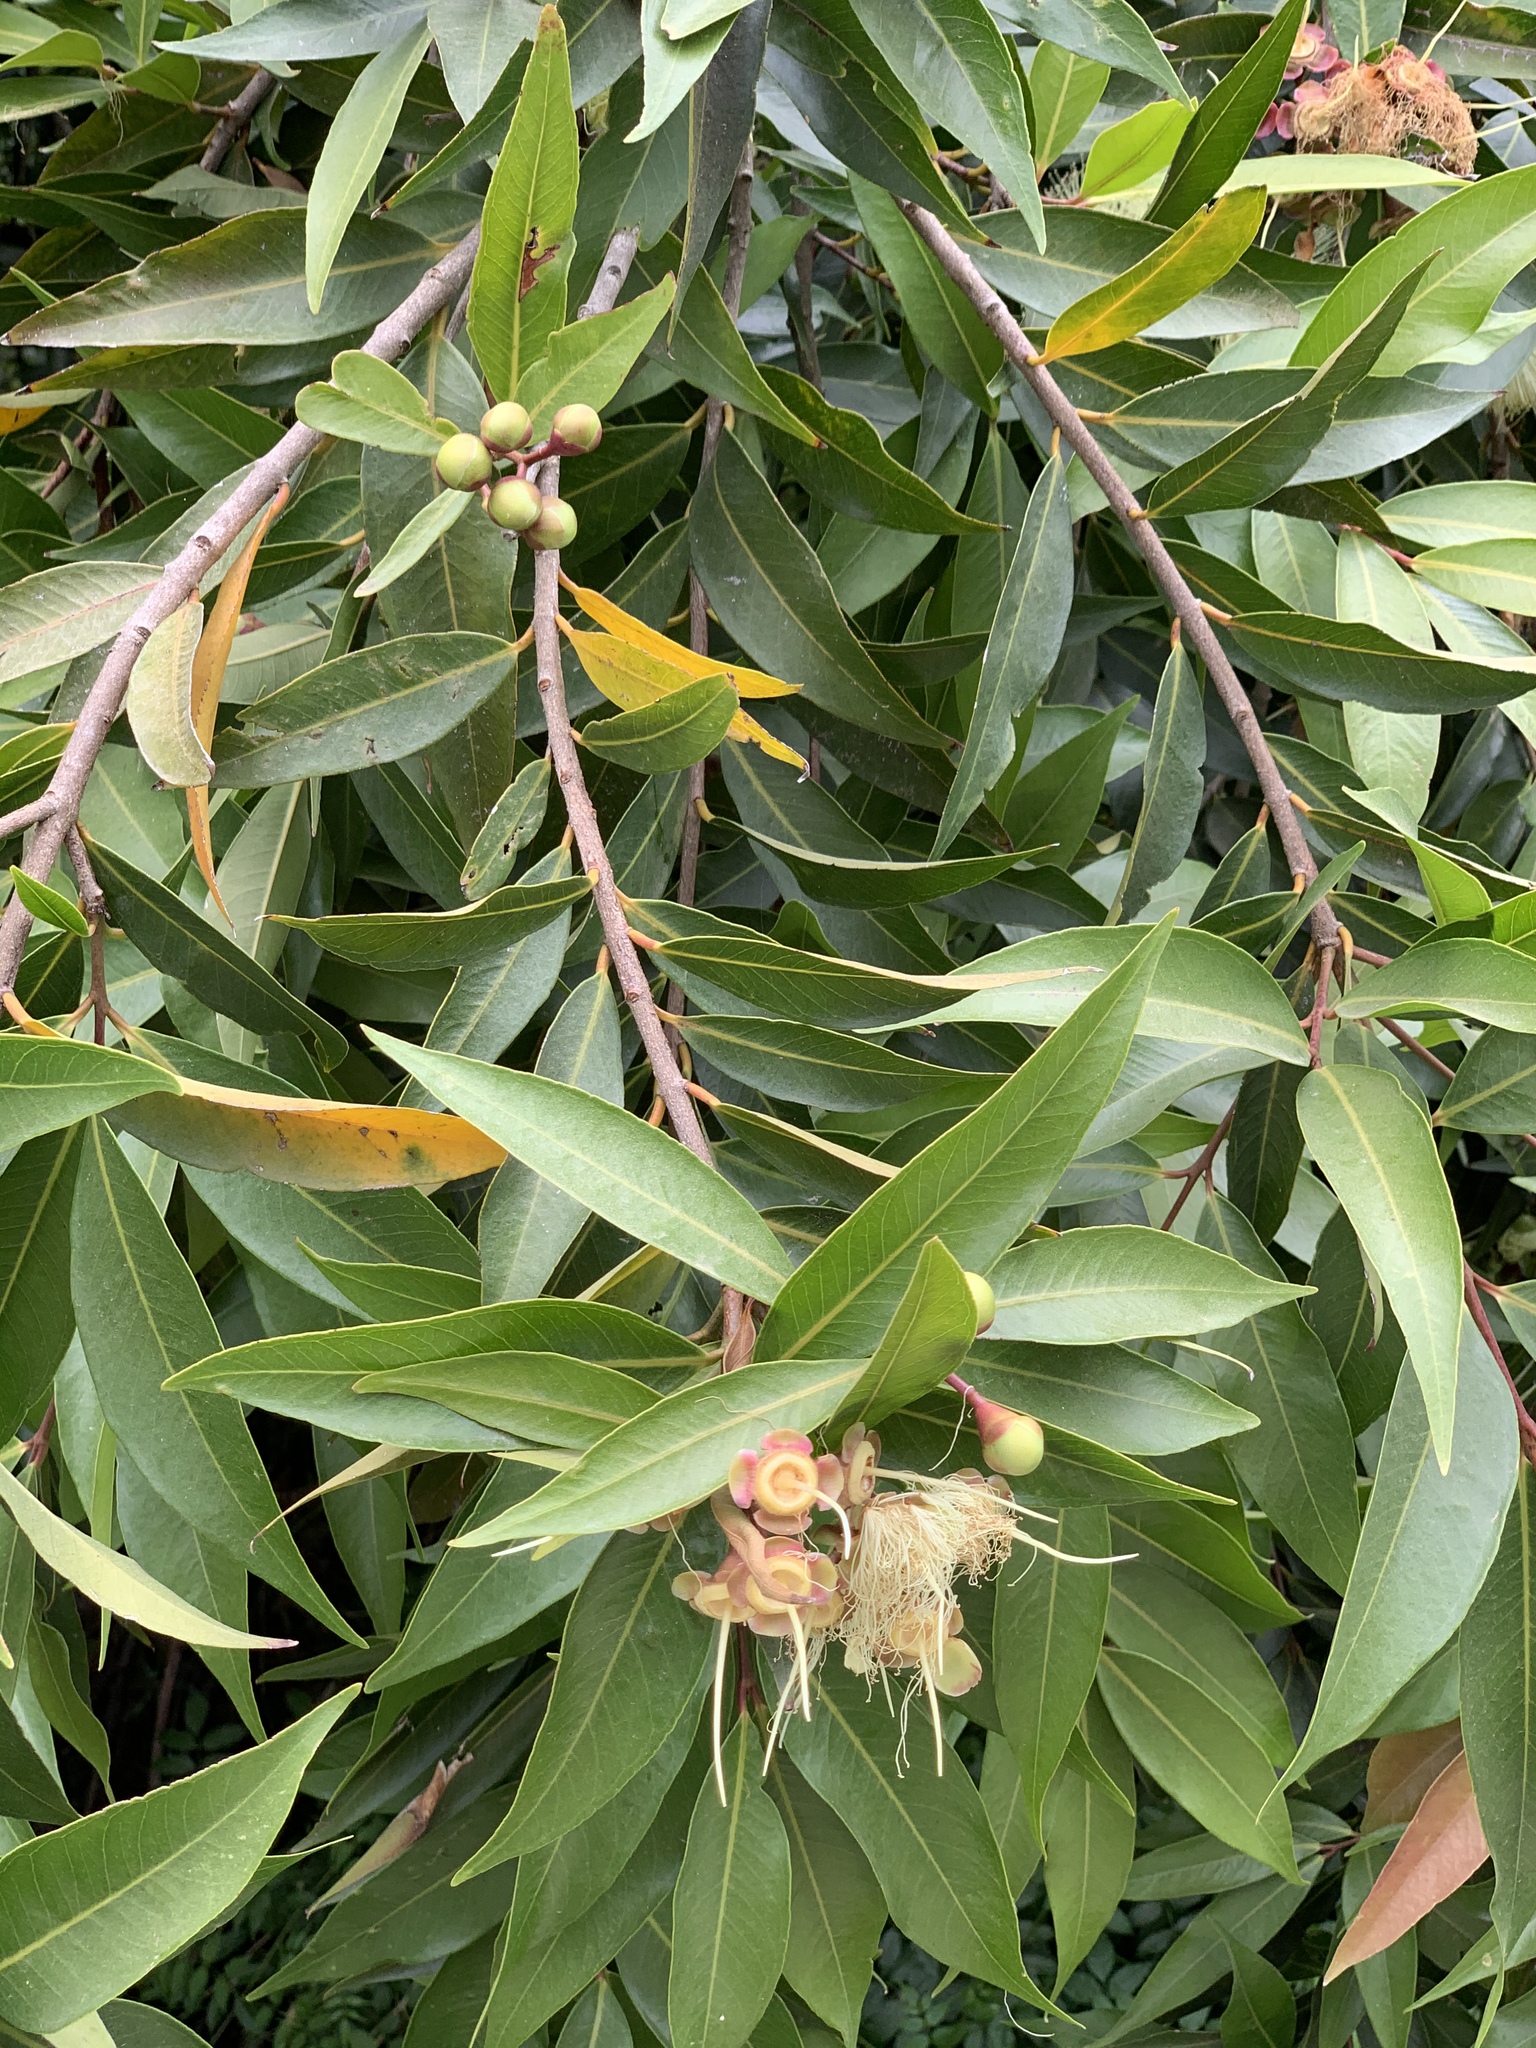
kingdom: Plantae
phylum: Tracheophyta
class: Magnoliopsida
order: Myrtales
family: Myrtaceae
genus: Syzygium
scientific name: Syzygium jambos
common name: Malabar plum
